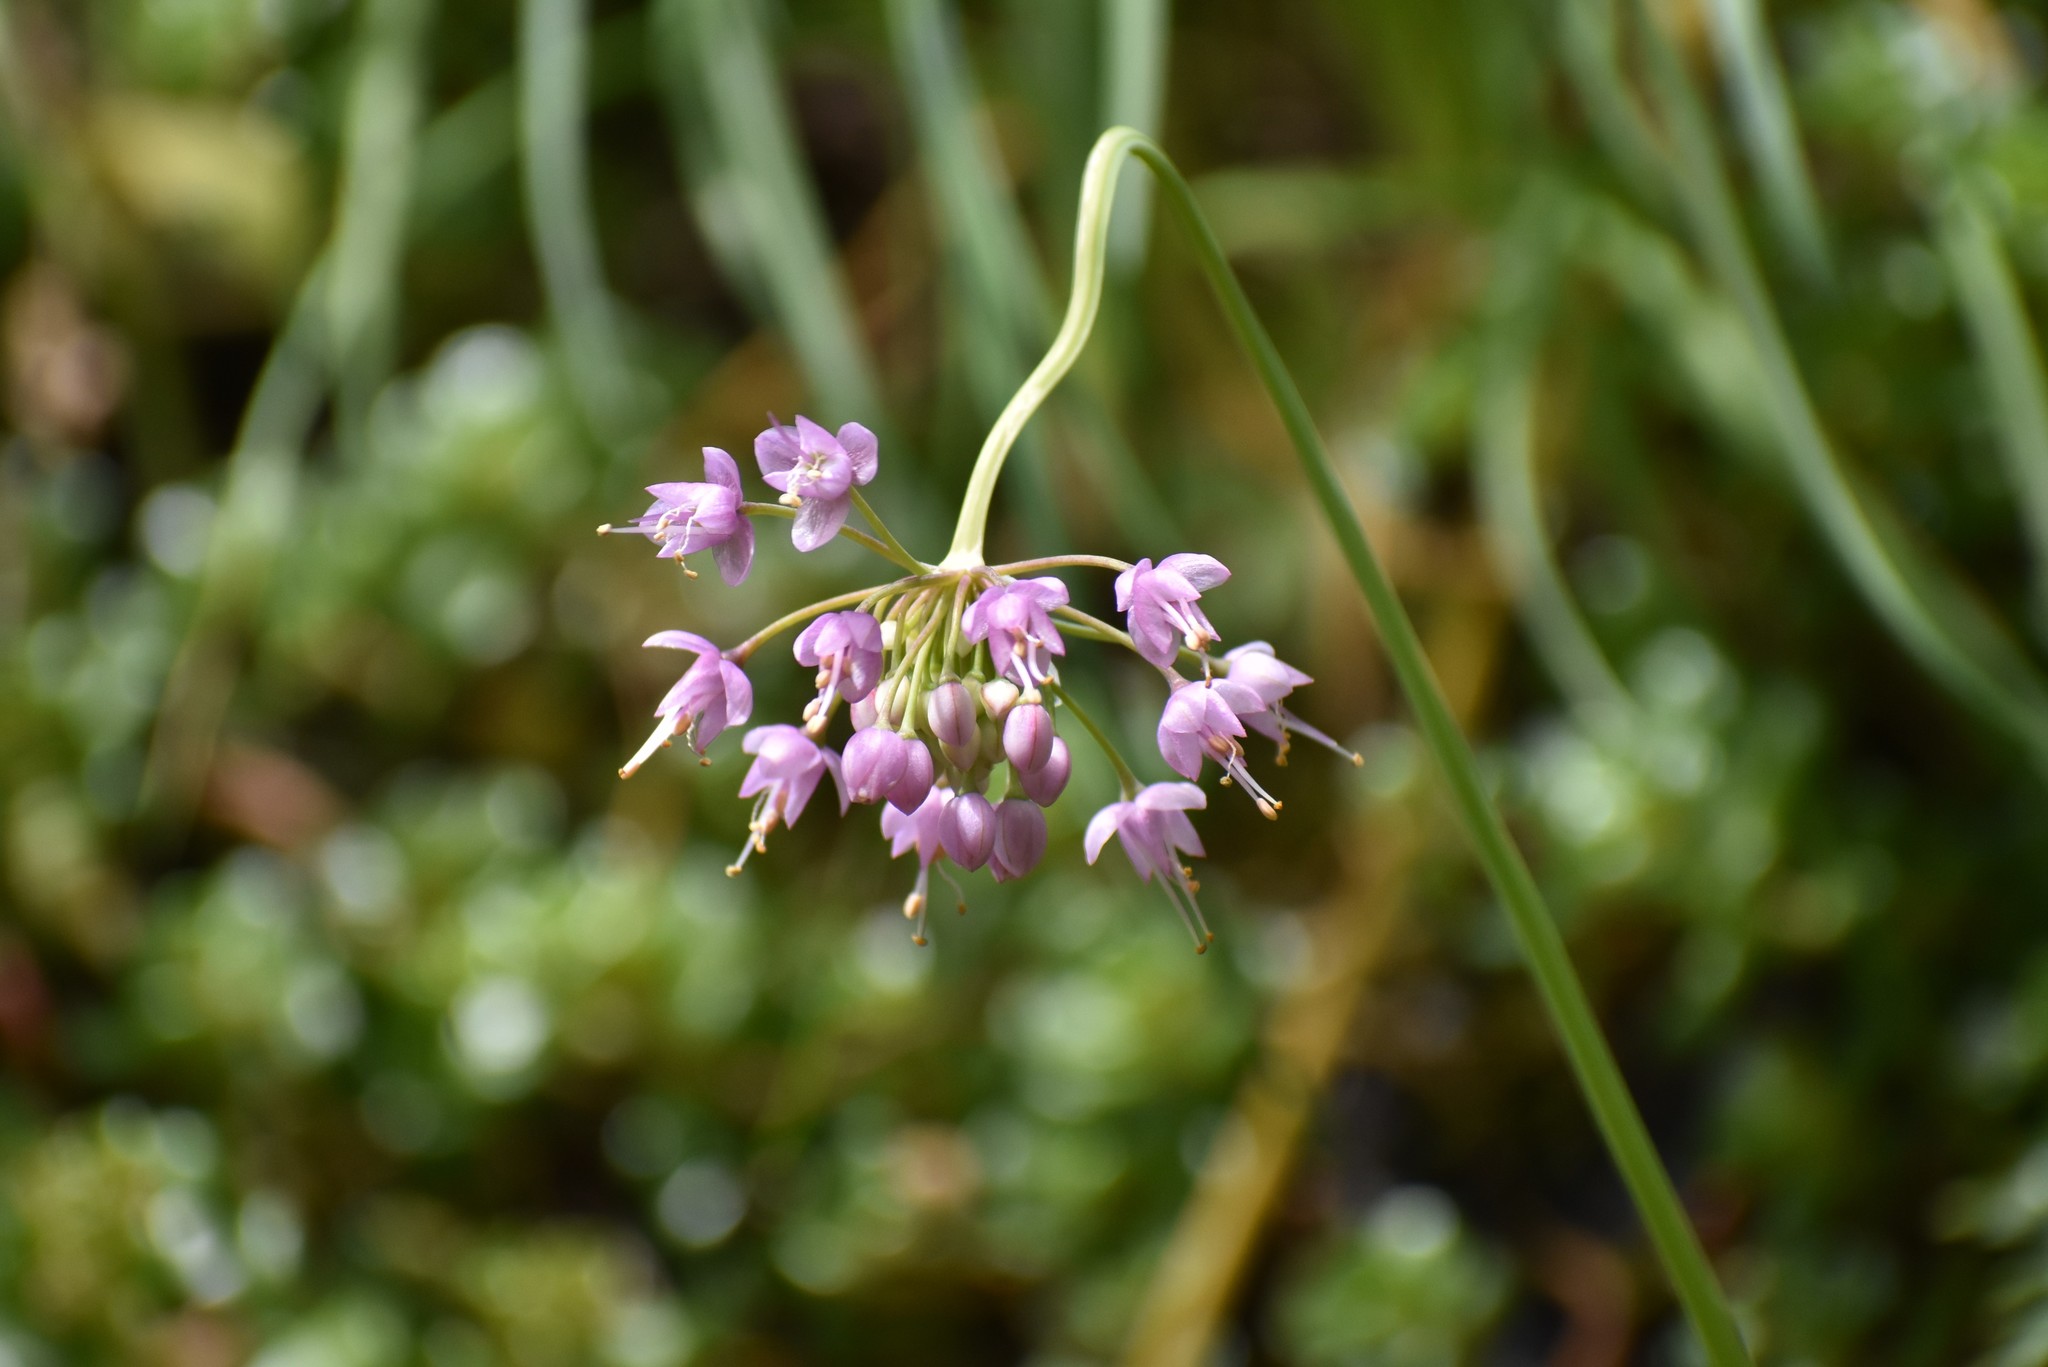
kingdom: Plantae
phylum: Tracheophyta
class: Liliopsida
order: Asparagales
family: Amaryllidaceae
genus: Allium
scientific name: Allium cernuum
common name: Nodding onion
